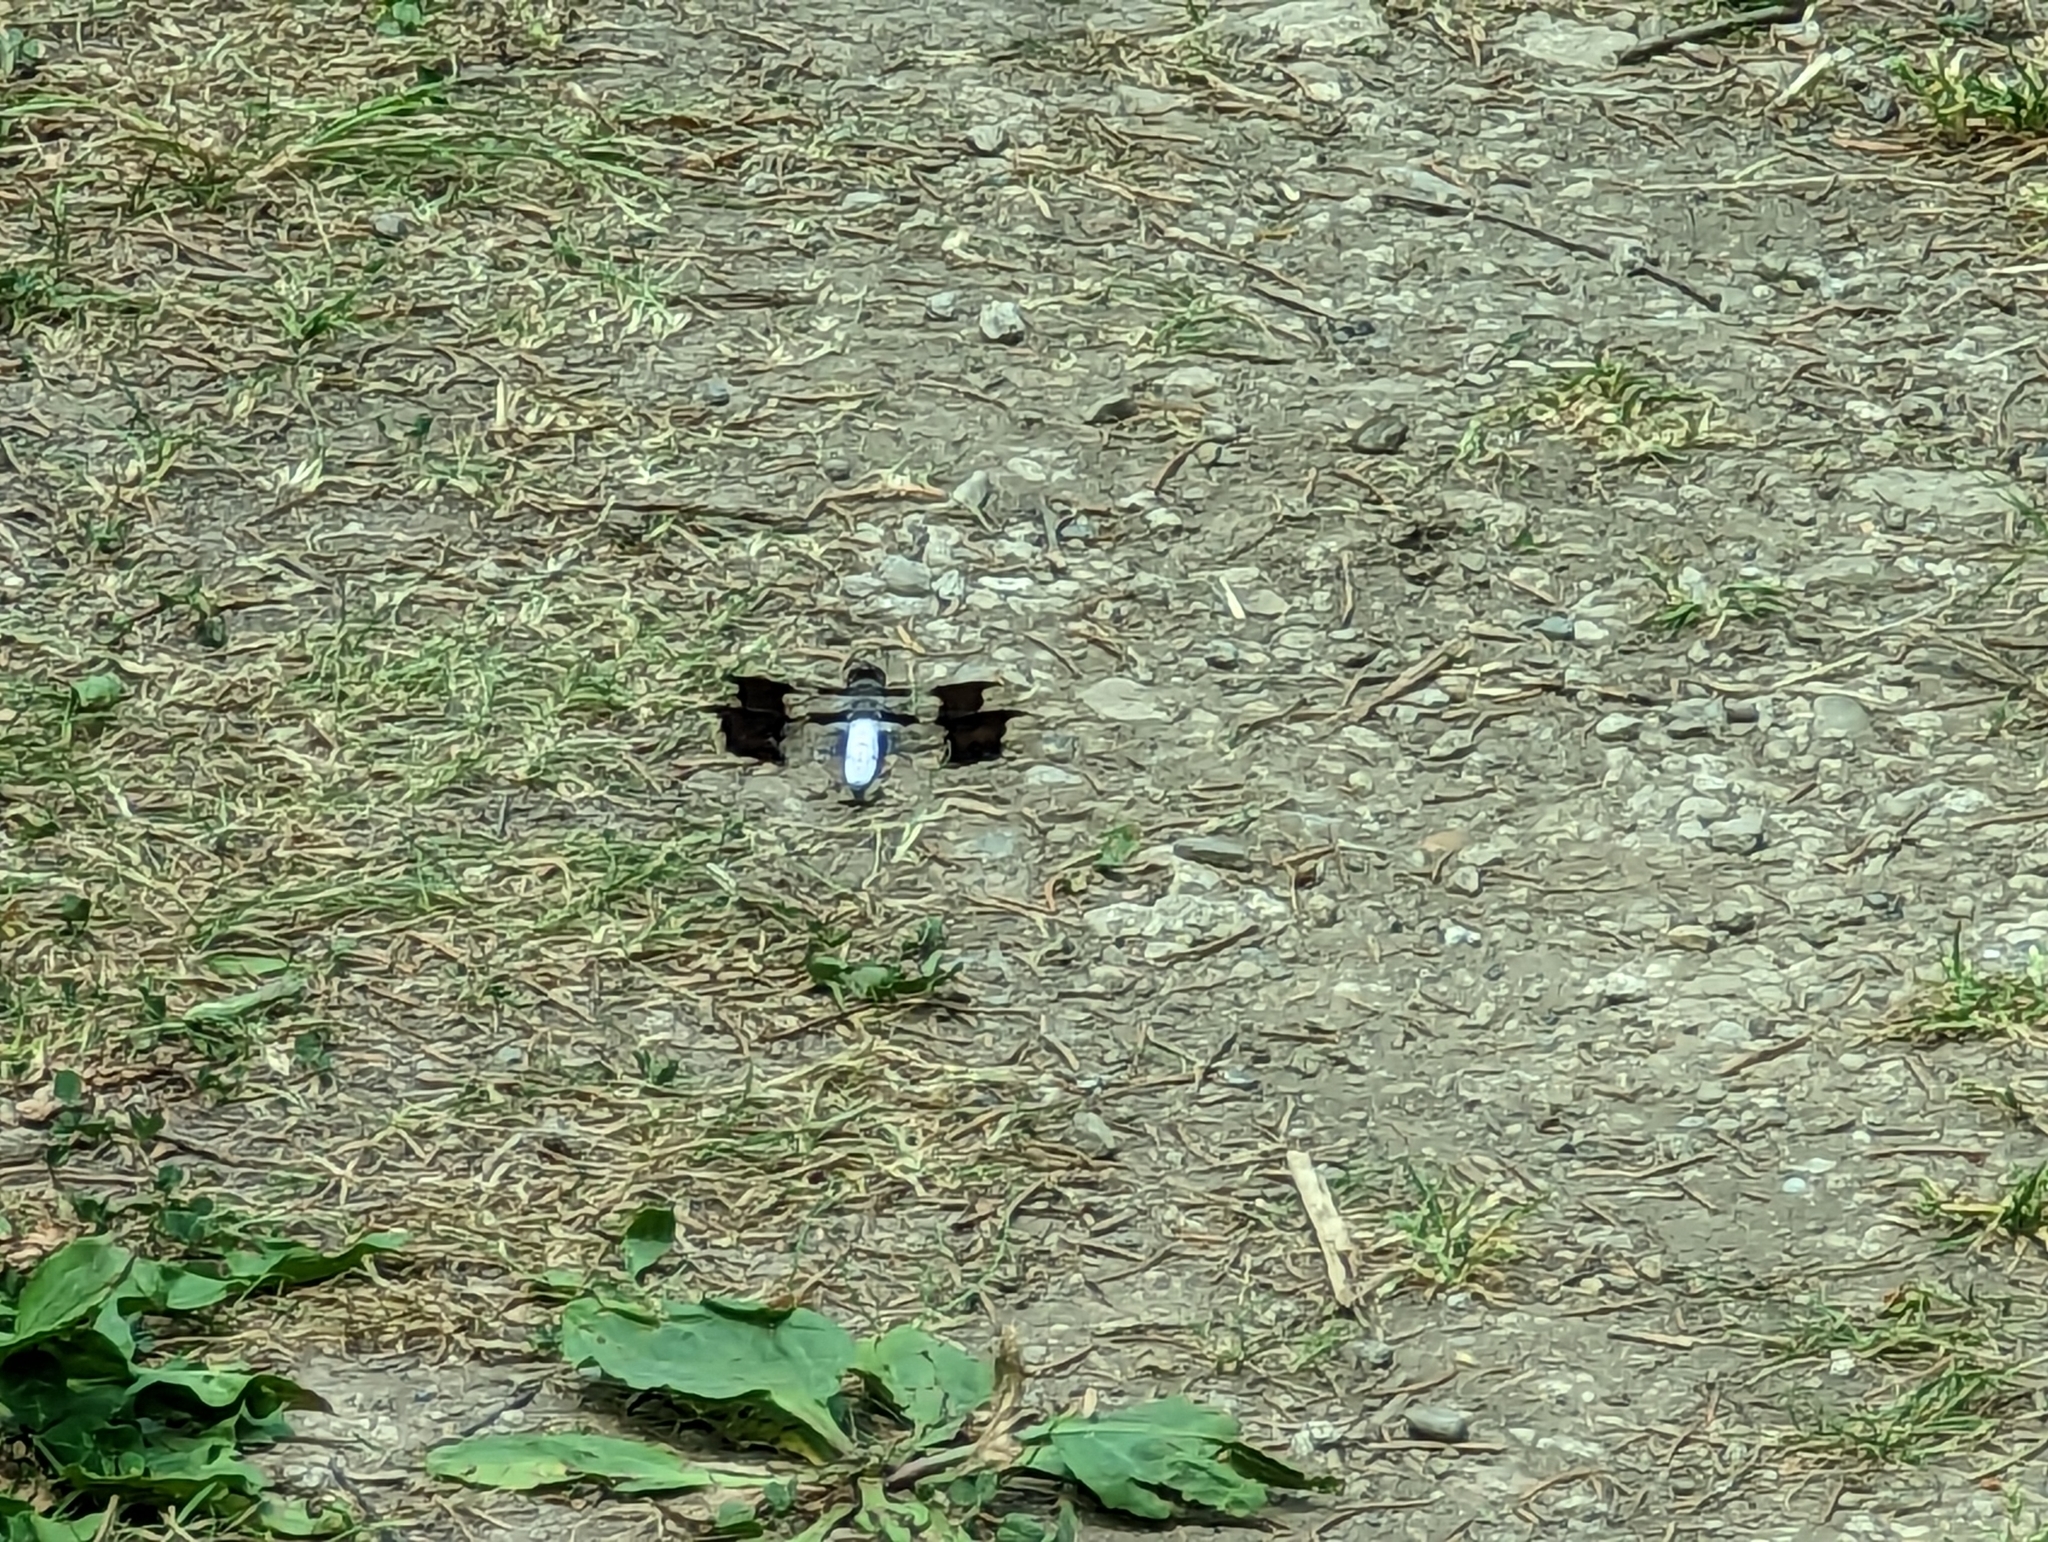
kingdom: Animalia
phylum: Arthropoda
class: Insecta
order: Odonata
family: Libellulidae
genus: Plathemis
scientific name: Plathemis lydia
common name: Common whitetail
